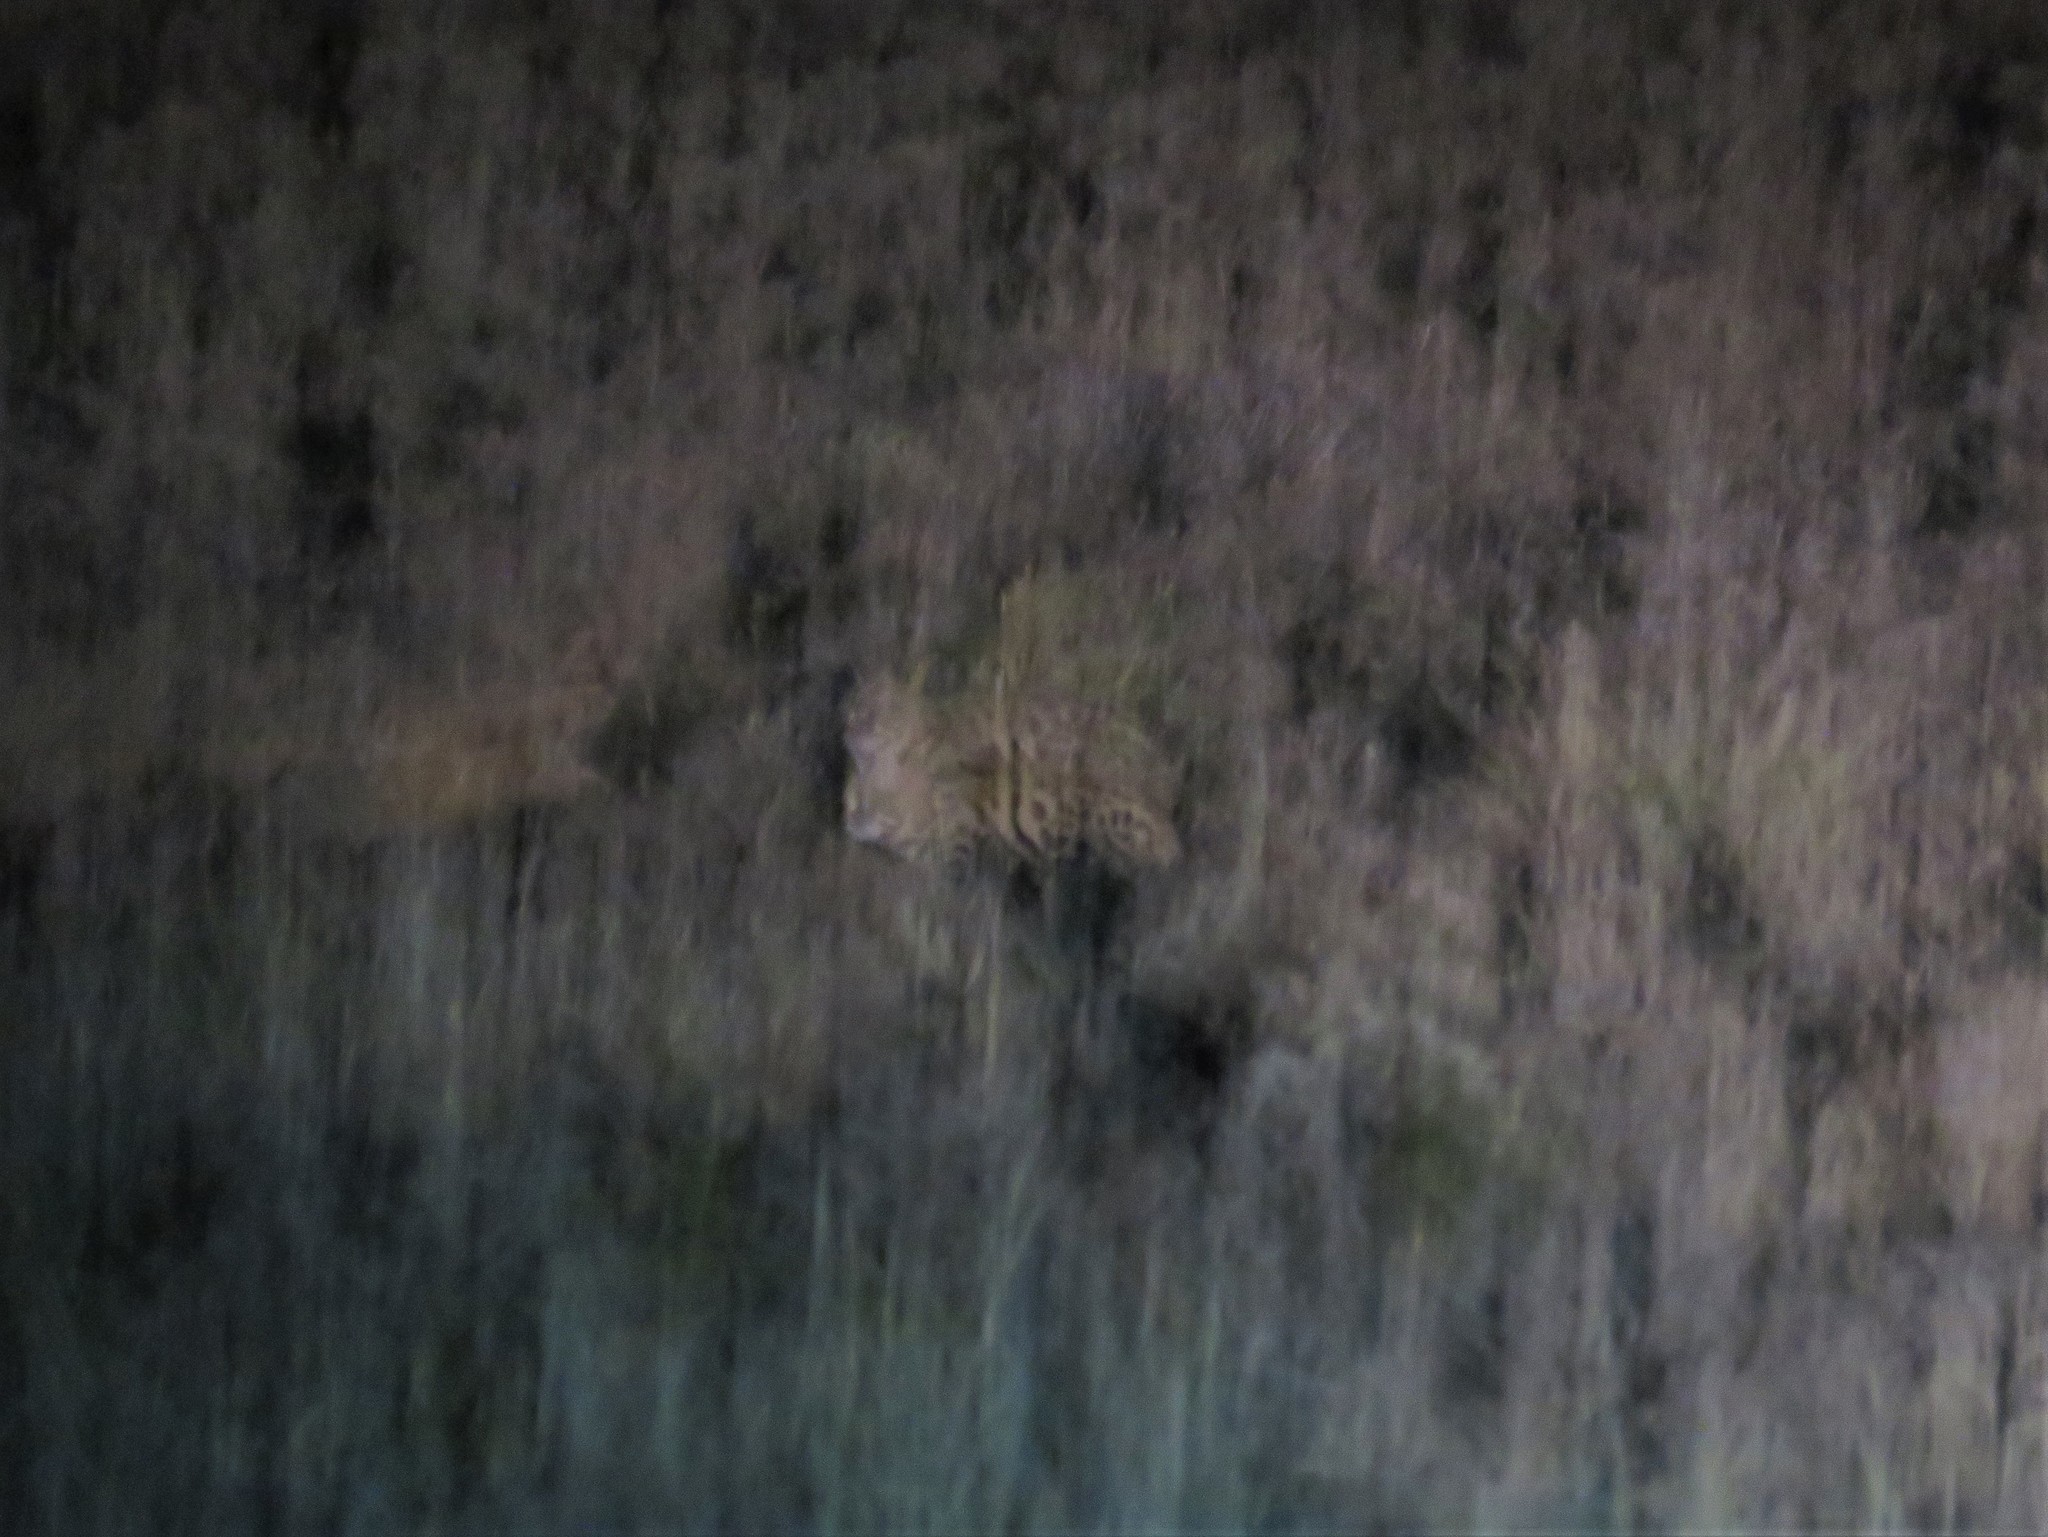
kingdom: Animalia
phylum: Chordata
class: Mammalia
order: Carnivora
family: Felidae
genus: Felis
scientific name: Felis nigripes
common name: Black-footed cat
